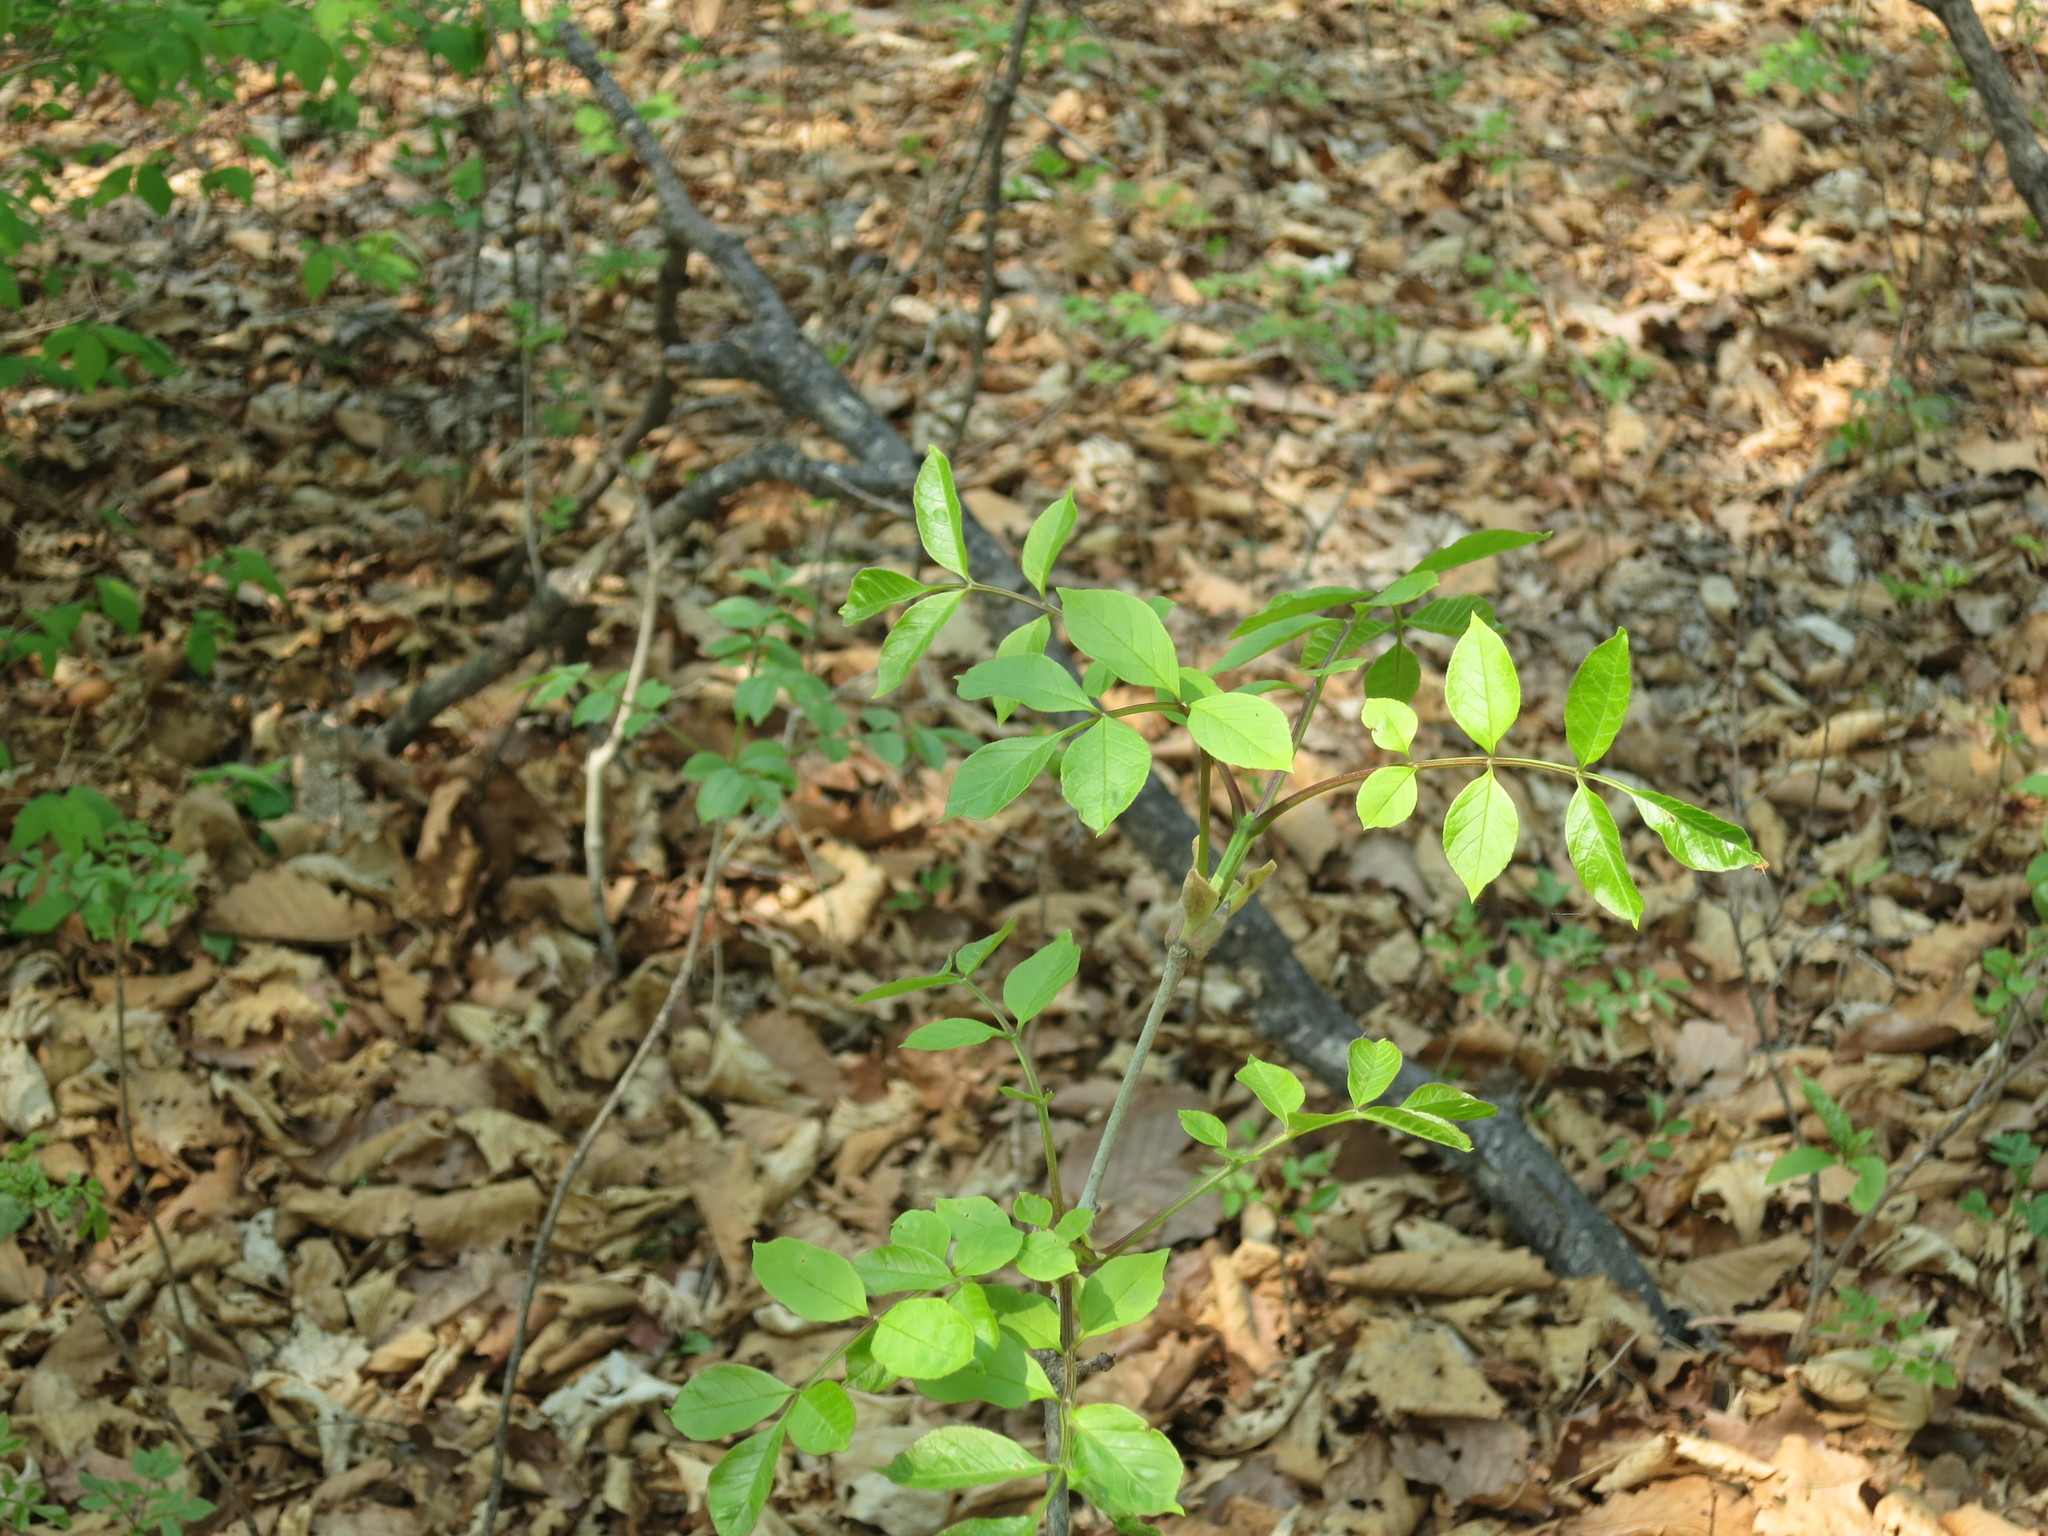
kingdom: Plantae
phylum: Tracheophyta
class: Magnoliopsida
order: Lamiales
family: Oleaceae
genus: Fraxinus
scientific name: Fraxinus chinensis
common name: Chinese ash
